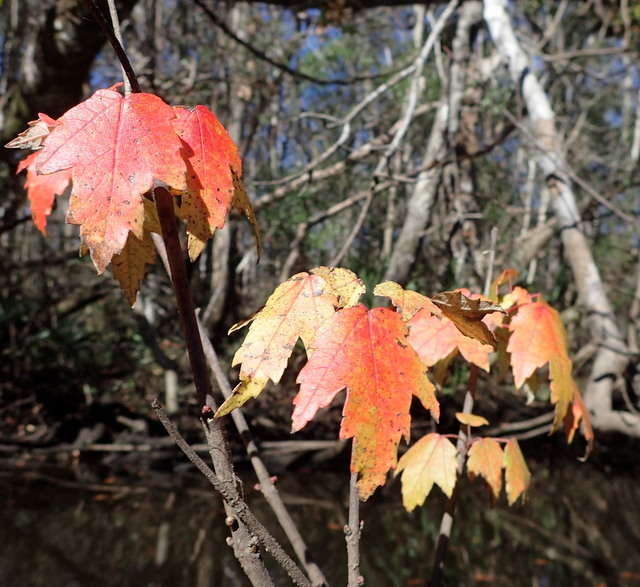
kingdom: Plantae
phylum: Tracheophyta
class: Magnoliopsida
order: Sapindales
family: Sapindaceae
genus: Acer
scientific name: Acer rubrum
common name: Red maple
